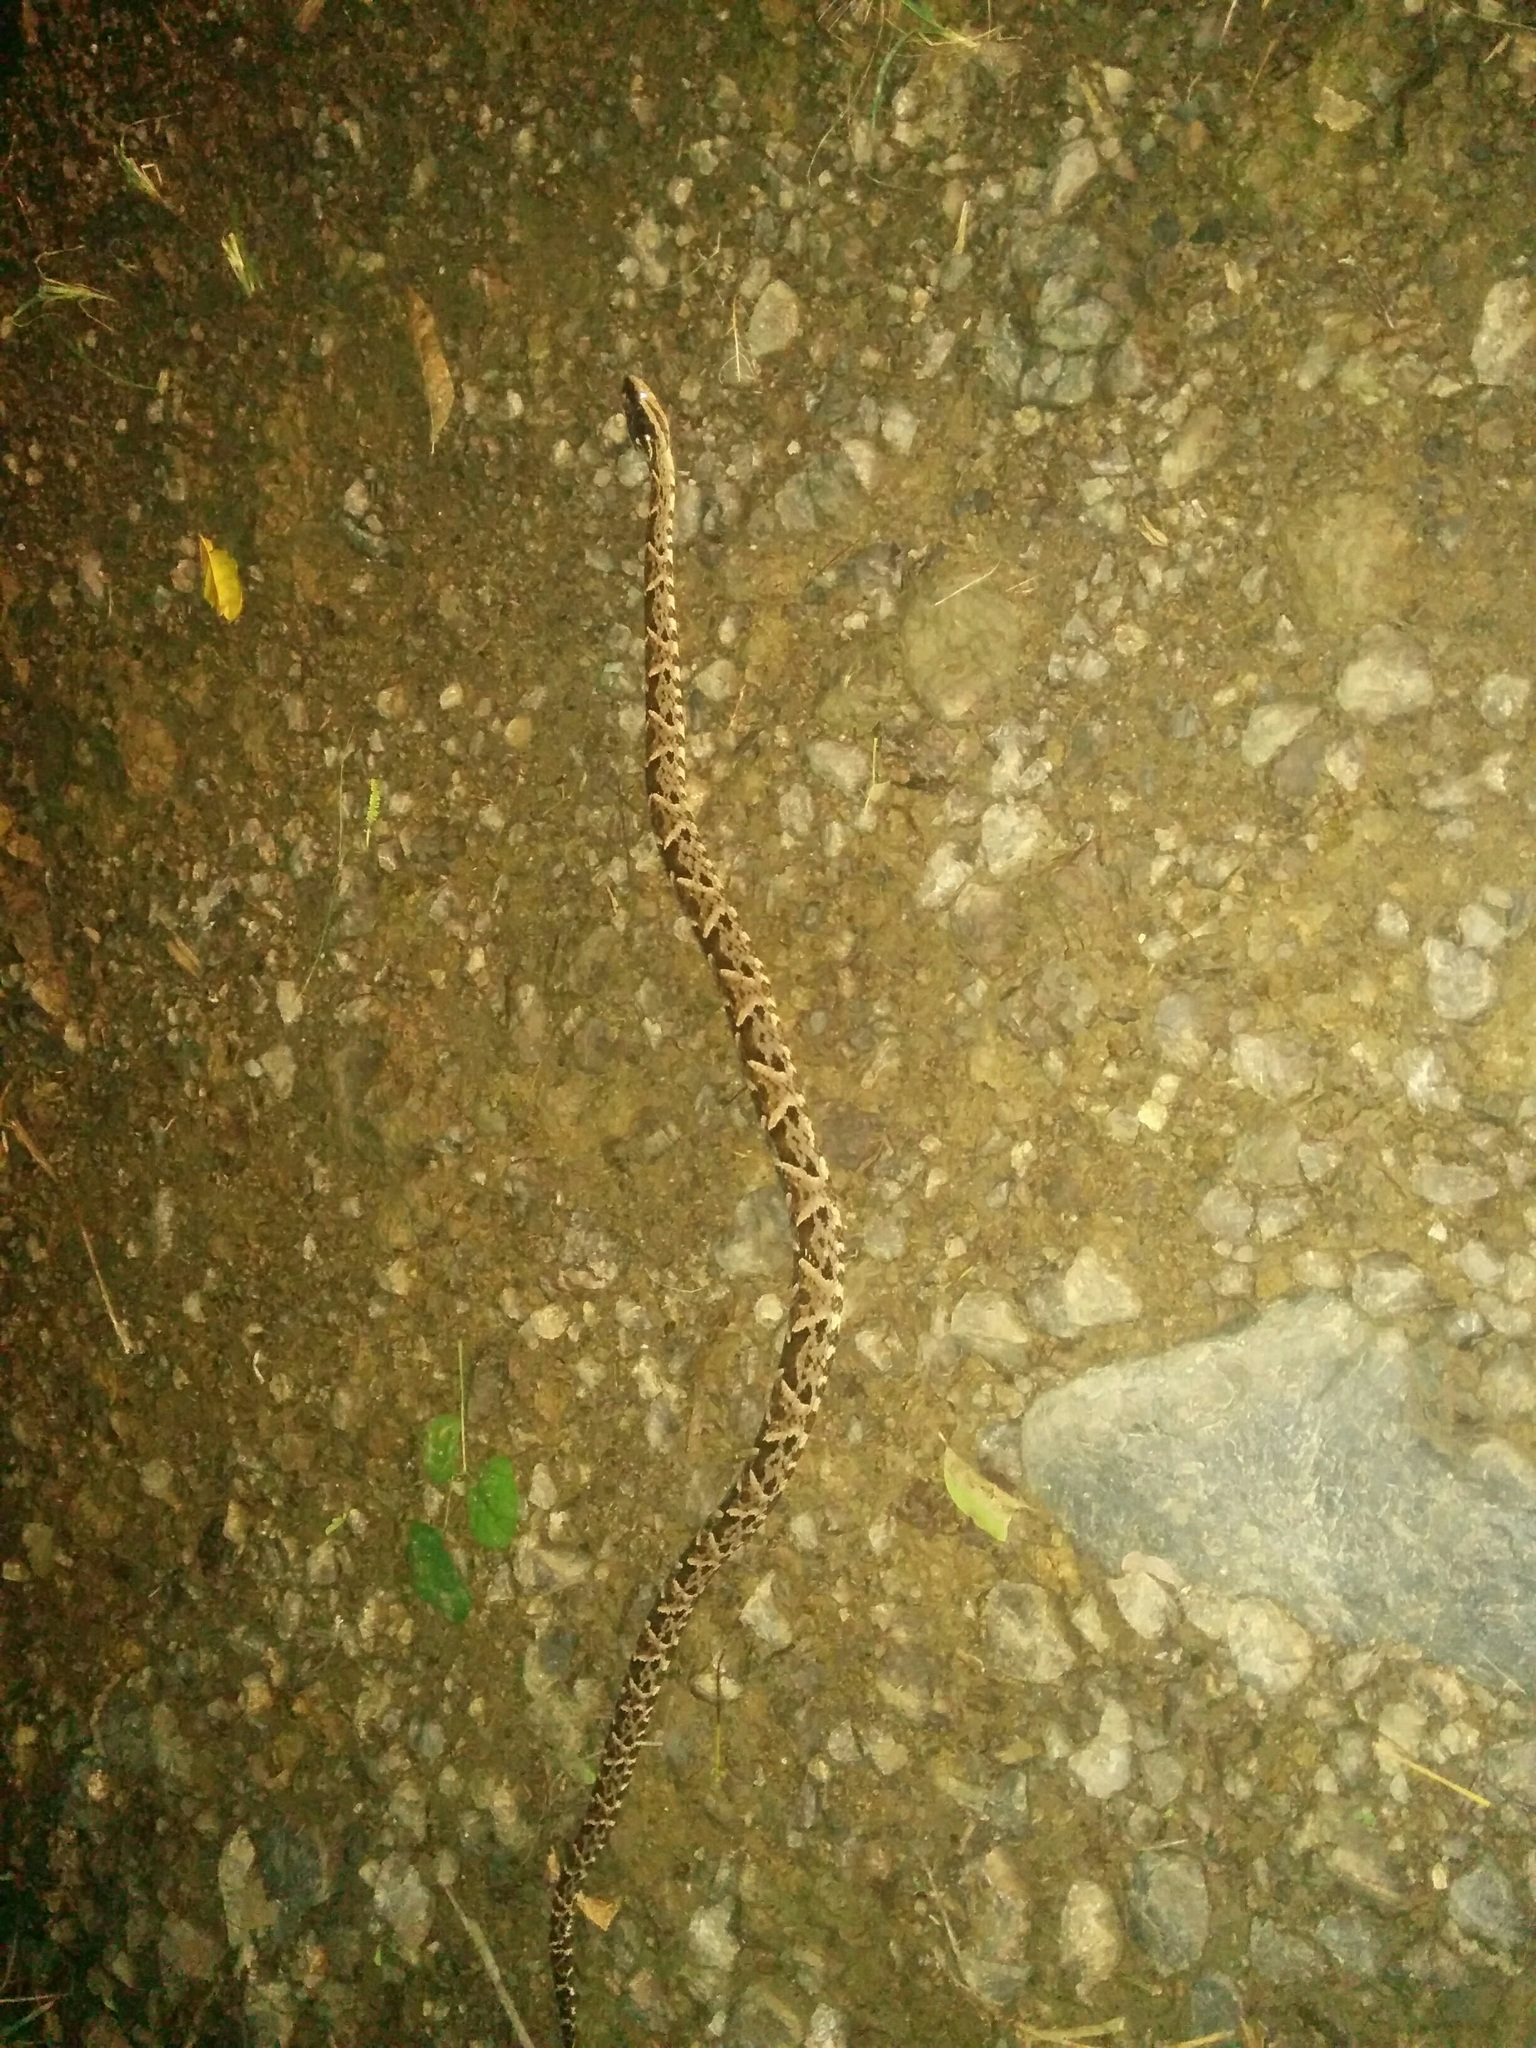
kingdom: Animalia
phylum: Chordata
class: Squamata
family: Viperidae
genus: Bothrops
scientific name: Bothrops asper
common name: Terciopelo
